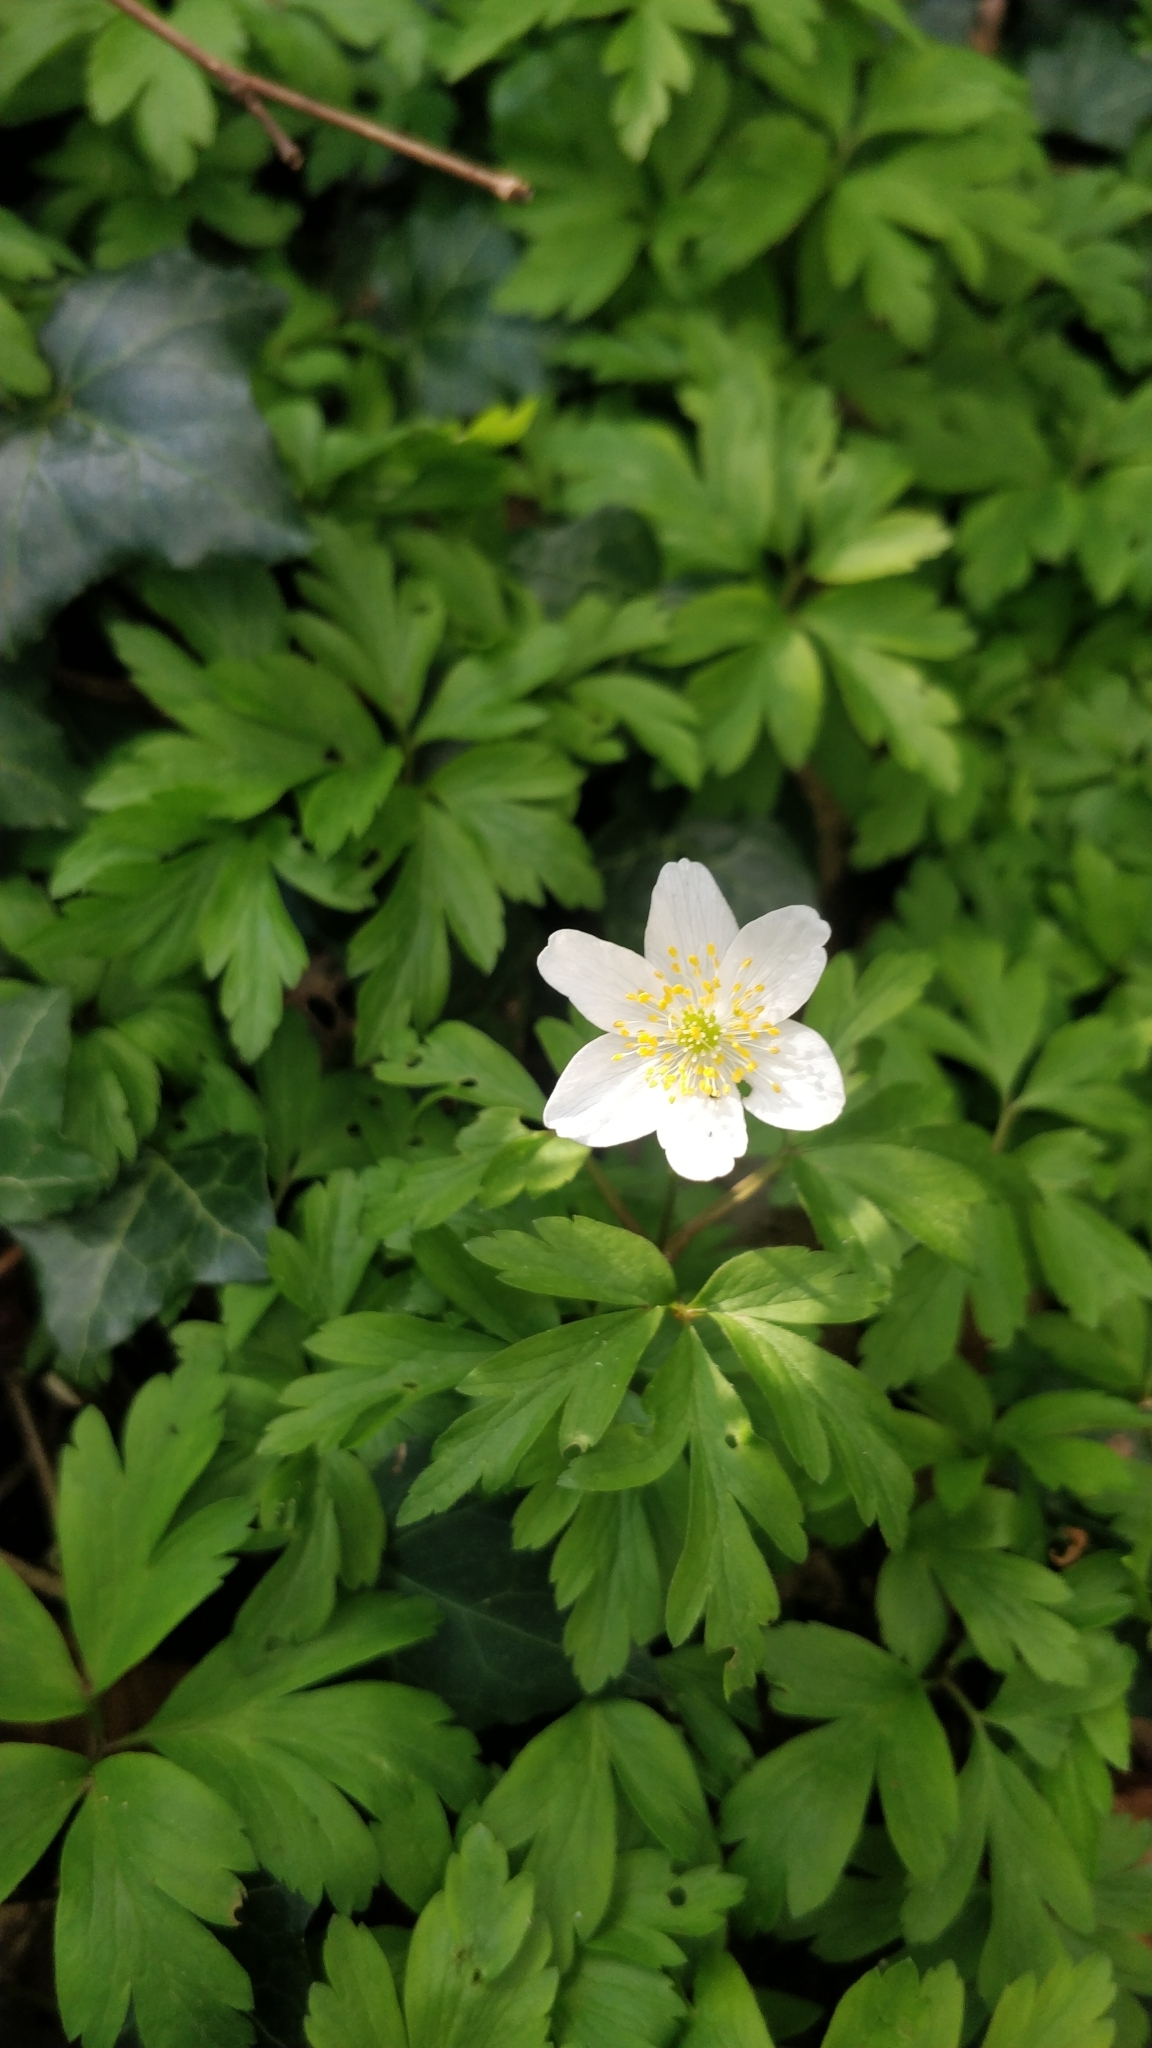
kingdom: Plantae
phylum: Tracheophyta
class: Magnoliopsida
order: Ranunculales
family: Ranunculaceae
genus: Anemone
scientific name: Anemone nemorosa
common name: Wood anemone
